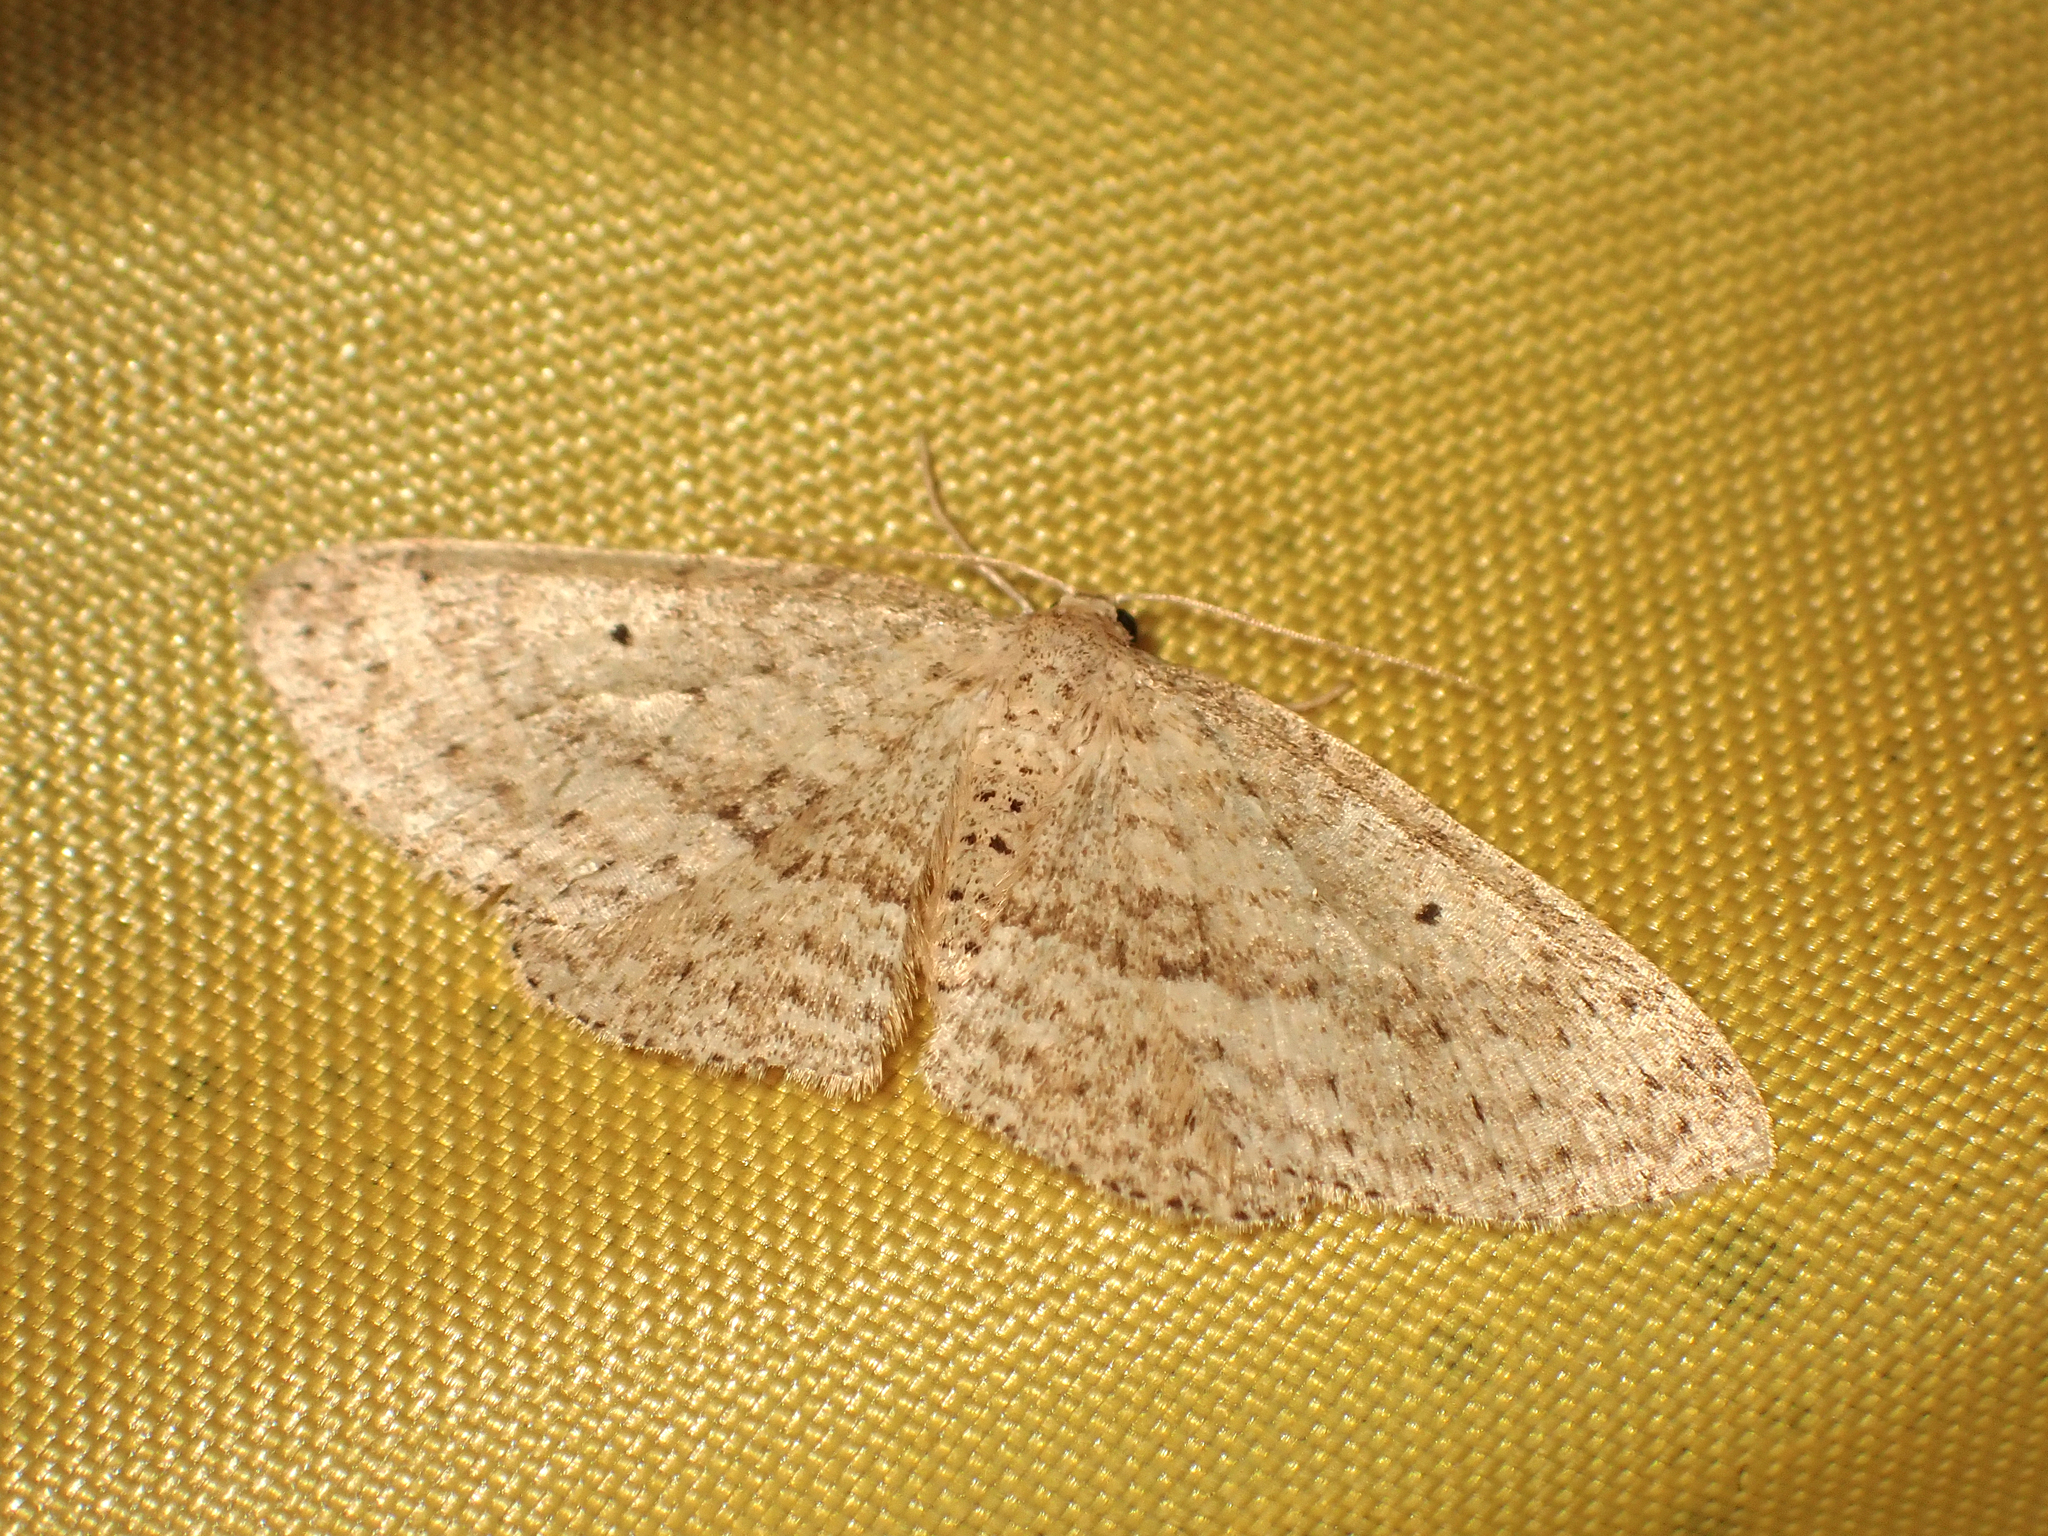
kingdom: Animalia
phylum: Arthropoda
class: Insecta
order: Lepidoptera
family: Geometridae
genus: Poecilasthena
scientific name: Poecilasthena schistaria
